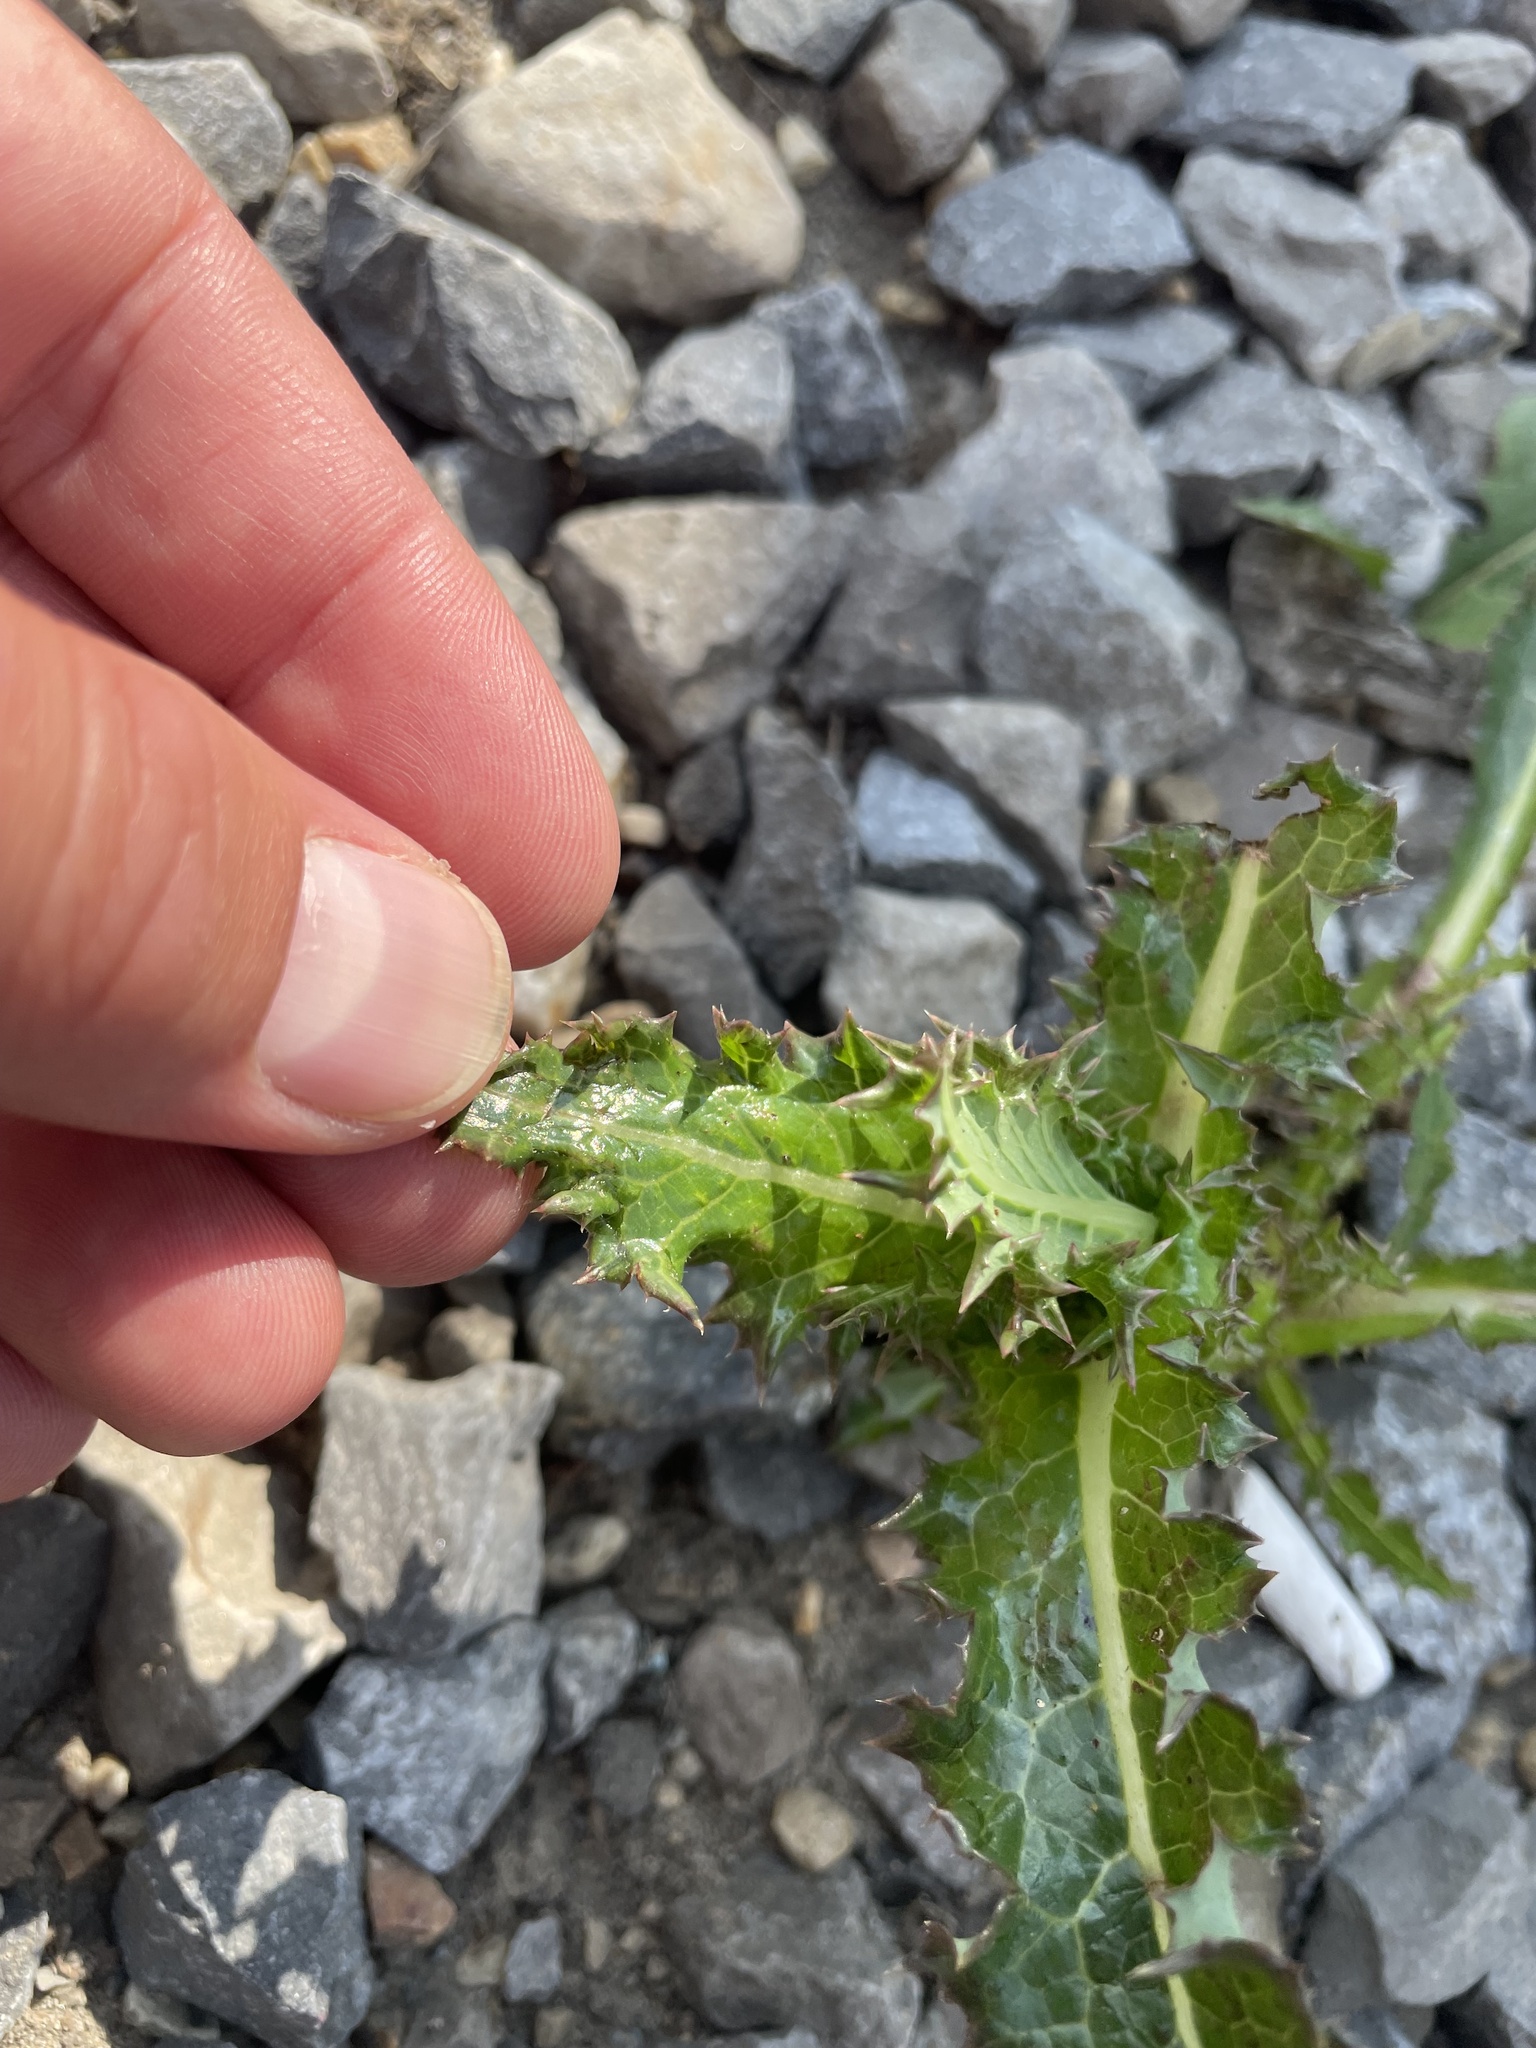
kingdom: Plantae
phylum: Tracheophyta
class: Magnoliopsida
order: Asterales
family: Asteraceae
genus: Sonchus
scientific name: Sonchus asper
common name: Prickly sow-thistle
